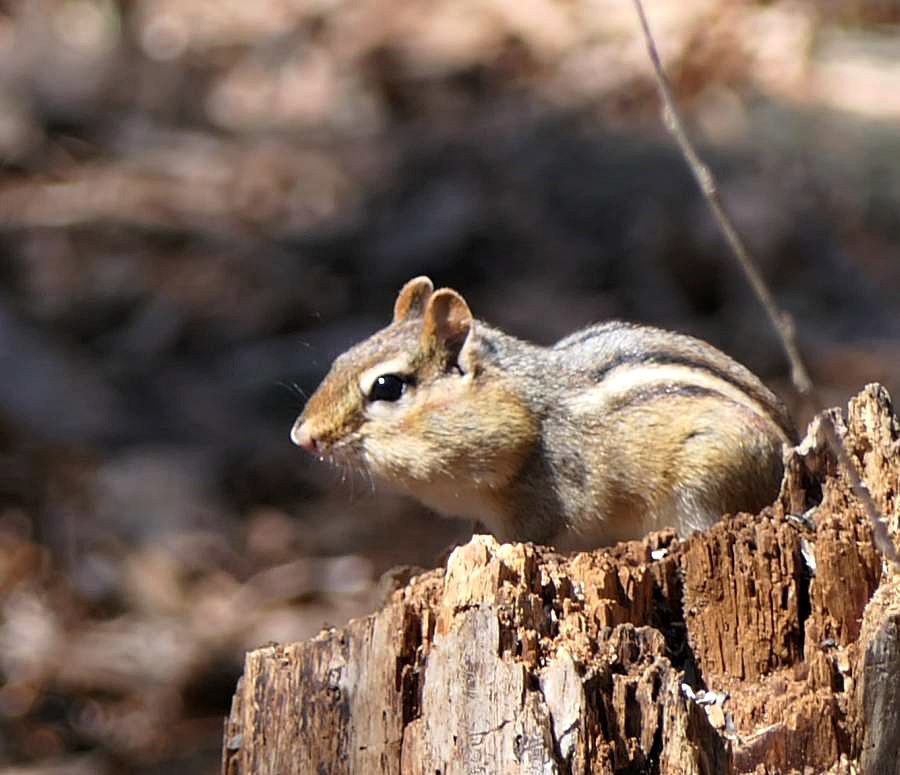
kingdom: Animalia
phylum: Chordata
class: Mammalia
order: Rodentia
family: Sciuridae
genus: Tamias
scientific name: Tamias striatus
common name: Eastern chipmunk
